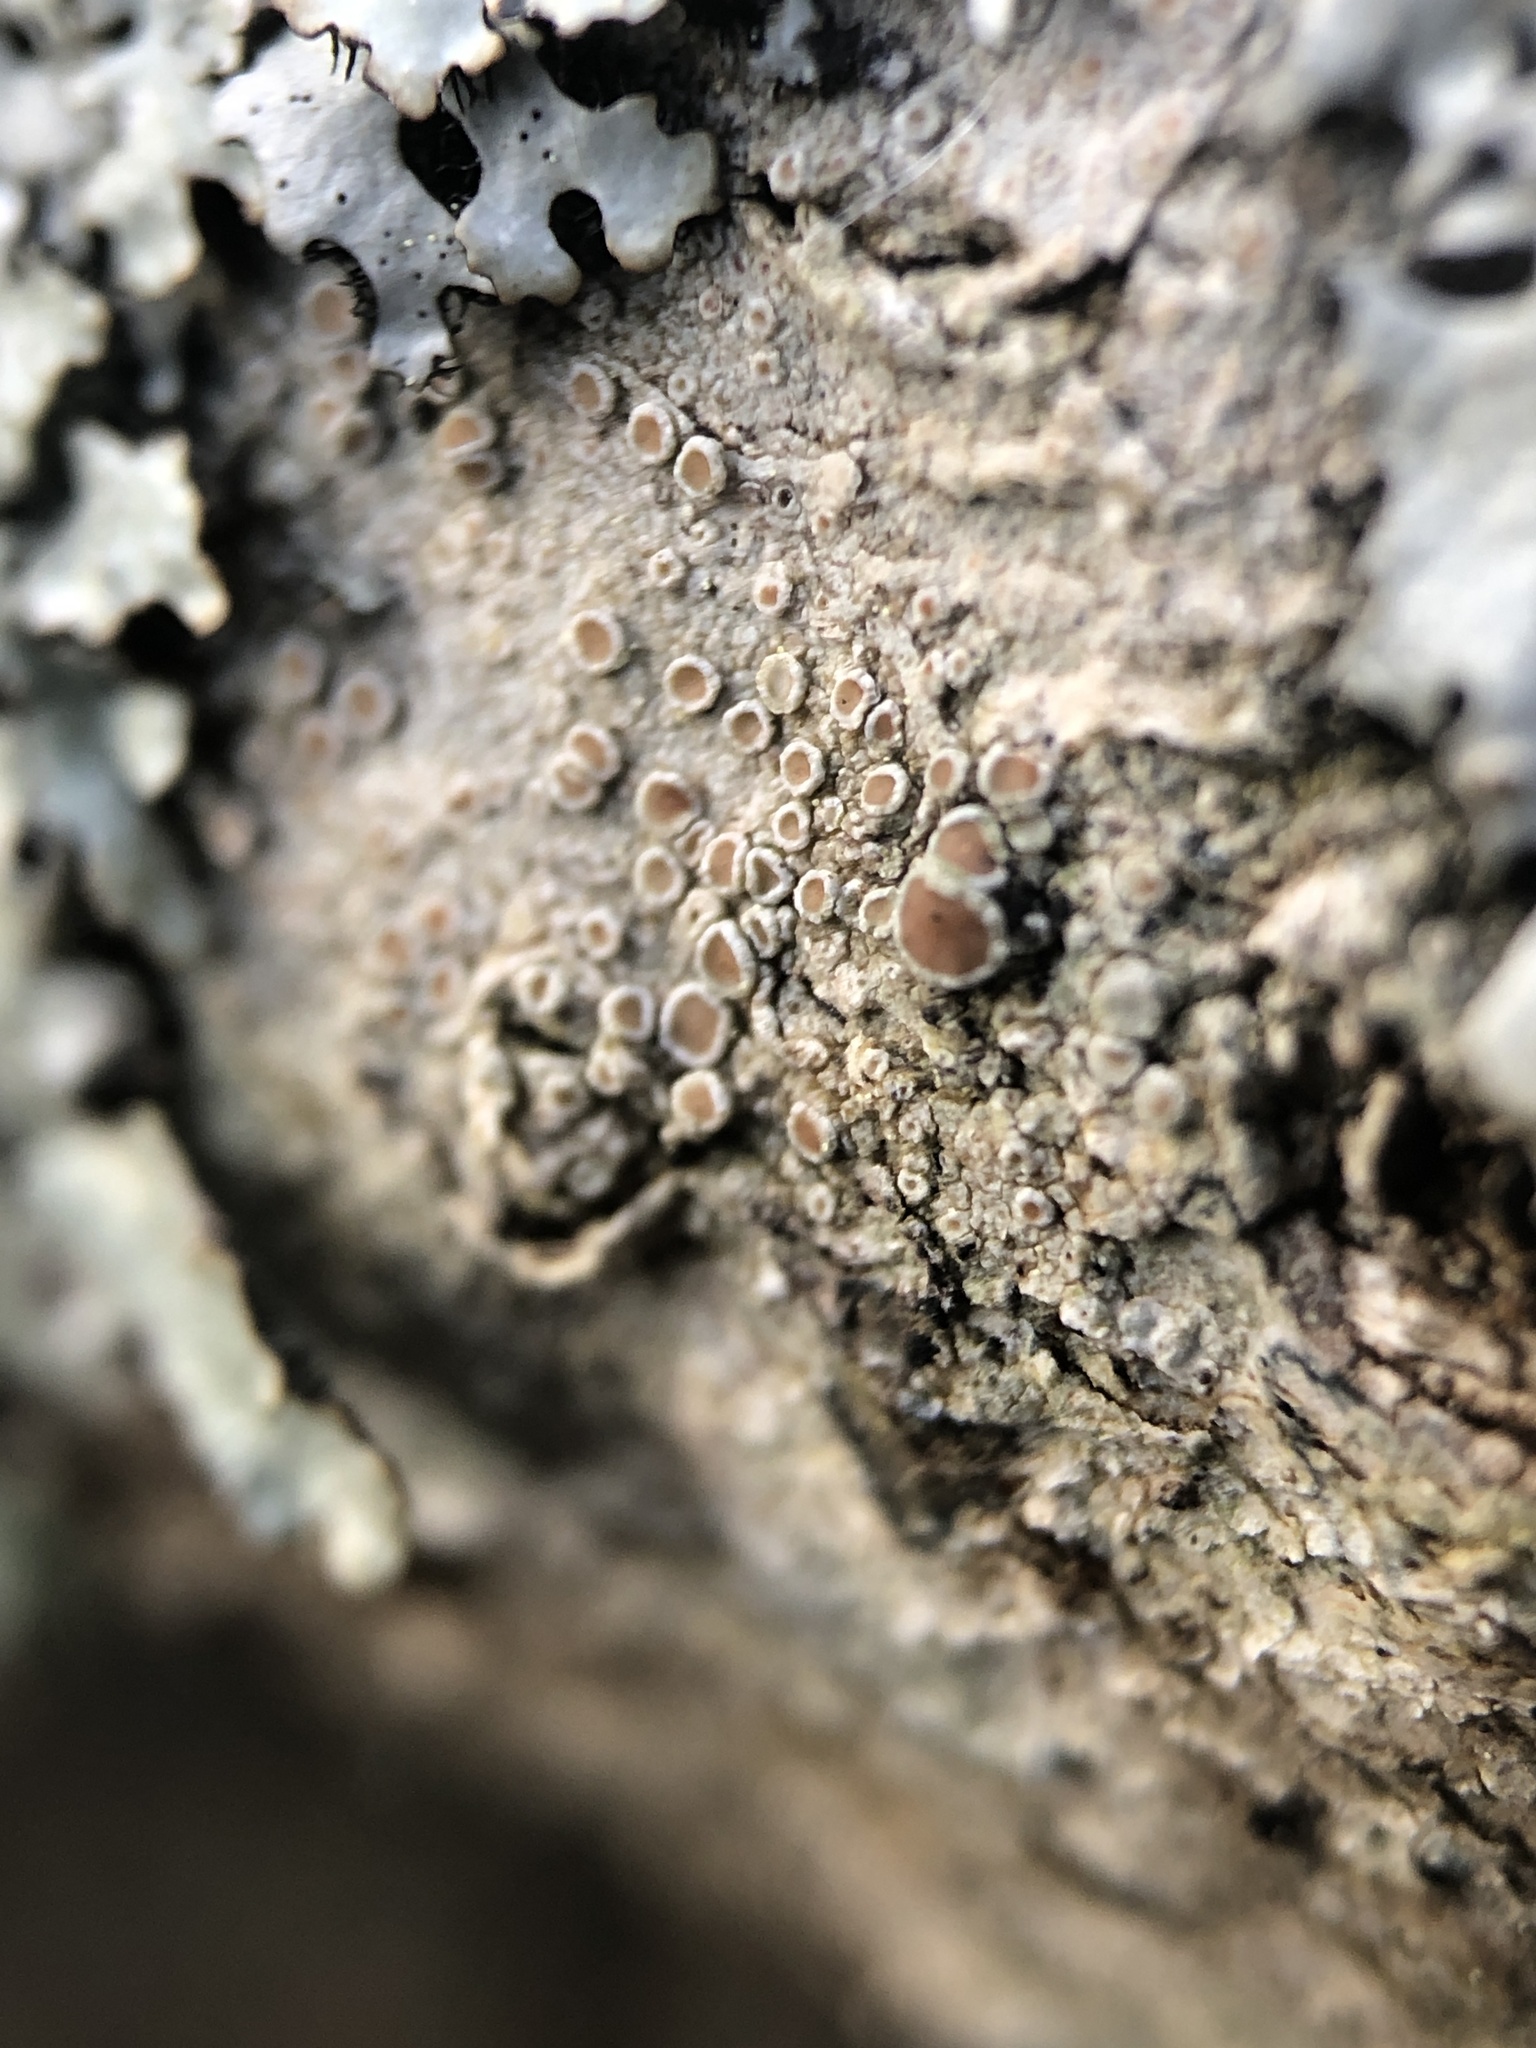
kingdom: Fungi
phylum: Ascomycota
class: Lecanoromycetes
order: Lecanorales
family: Lecanoraceae
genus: Lecanora
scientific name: Lecanora hybocarpa
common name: Bumpy rim-lichen
